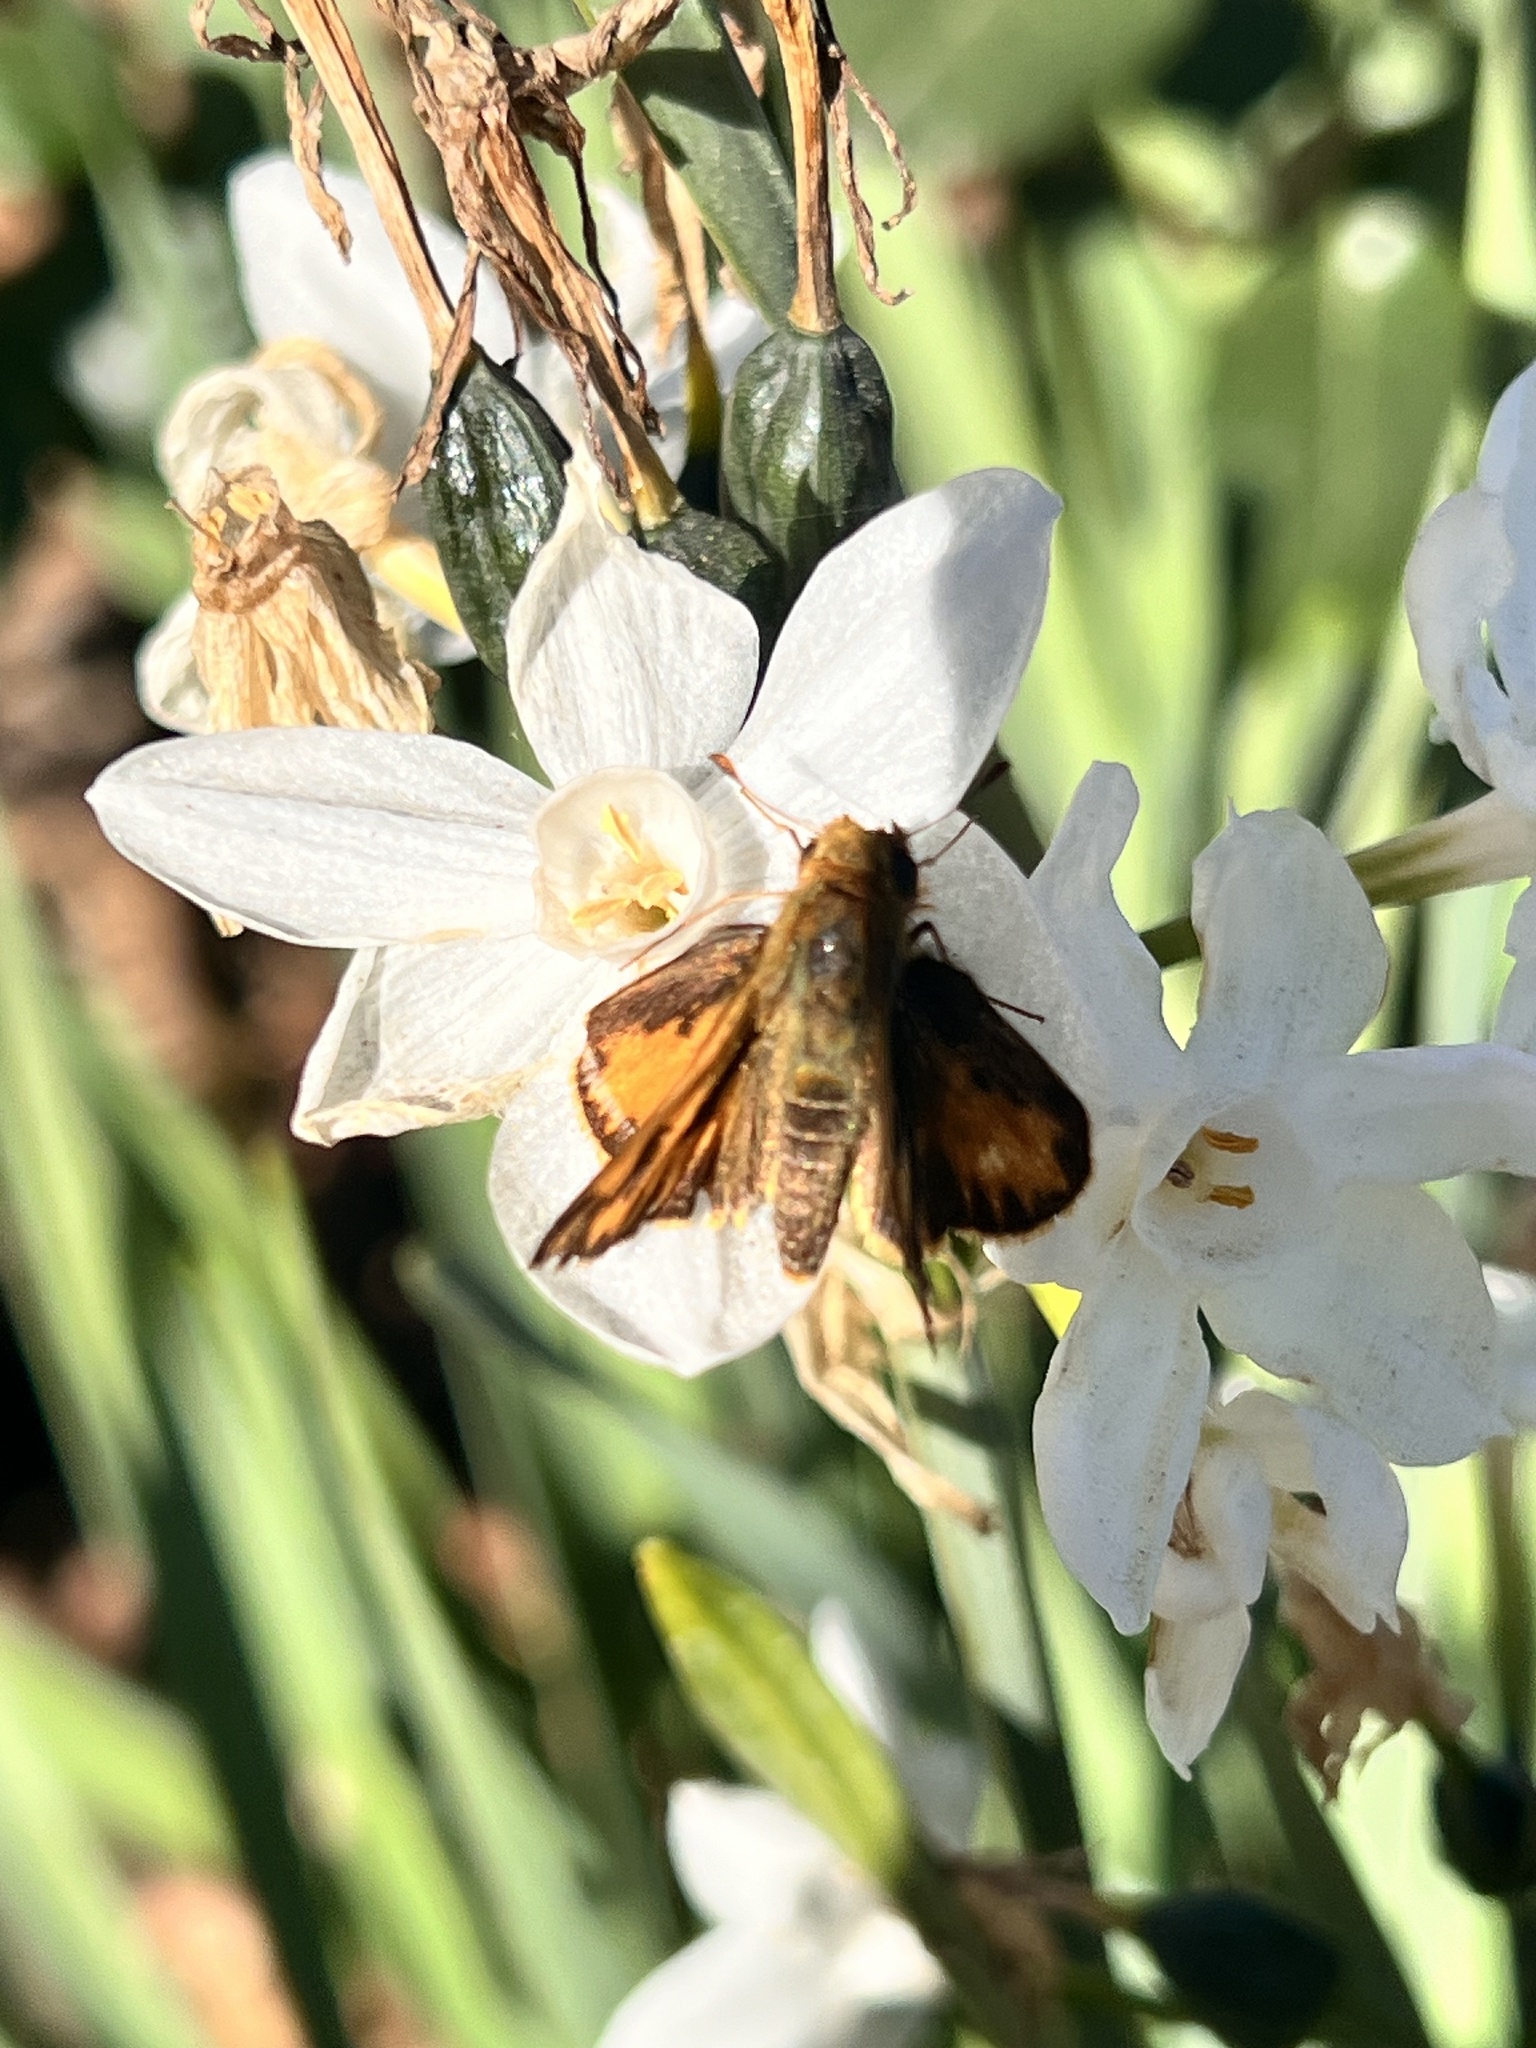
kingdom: Animalia
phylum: Arthropoda
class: Insecta
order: Lepidoptera
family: Hesperiidae
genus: Hylephila
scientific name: Hylephila phyleus
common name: Fiery skipper
